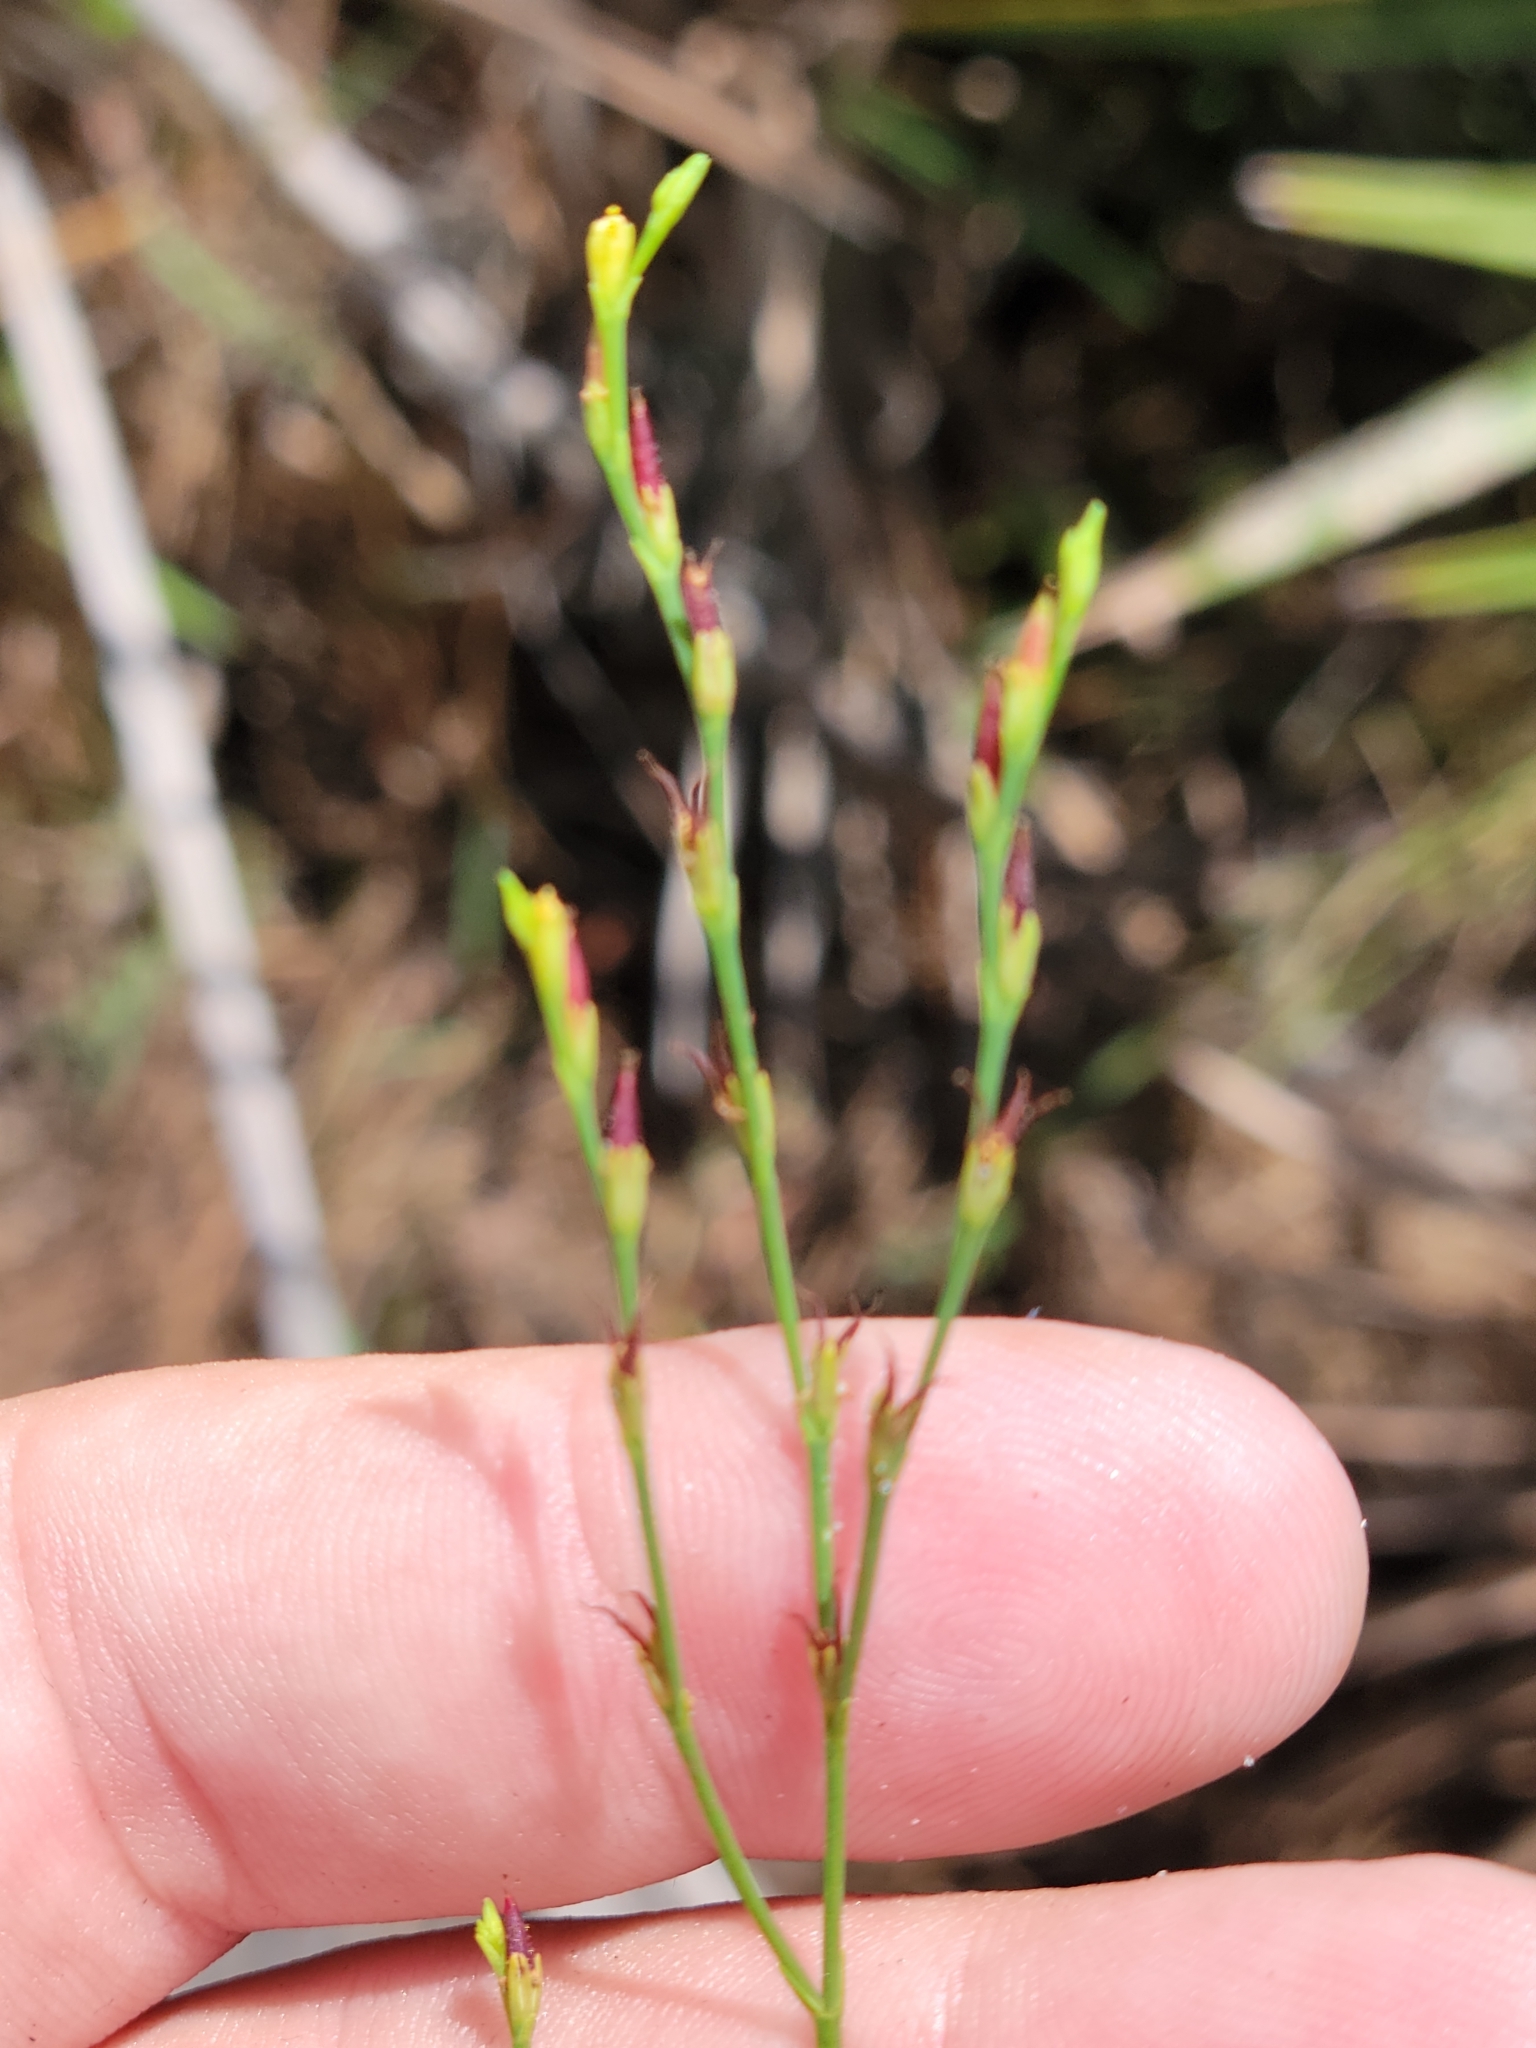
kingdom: Plantae
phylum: Tracheophyta
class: Magnoliopsida
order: Malpighiales
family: Hypericaceae
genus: Hypericum
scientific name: Hypericum gentianoides
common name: Gentian-leaved st. john's-wort
